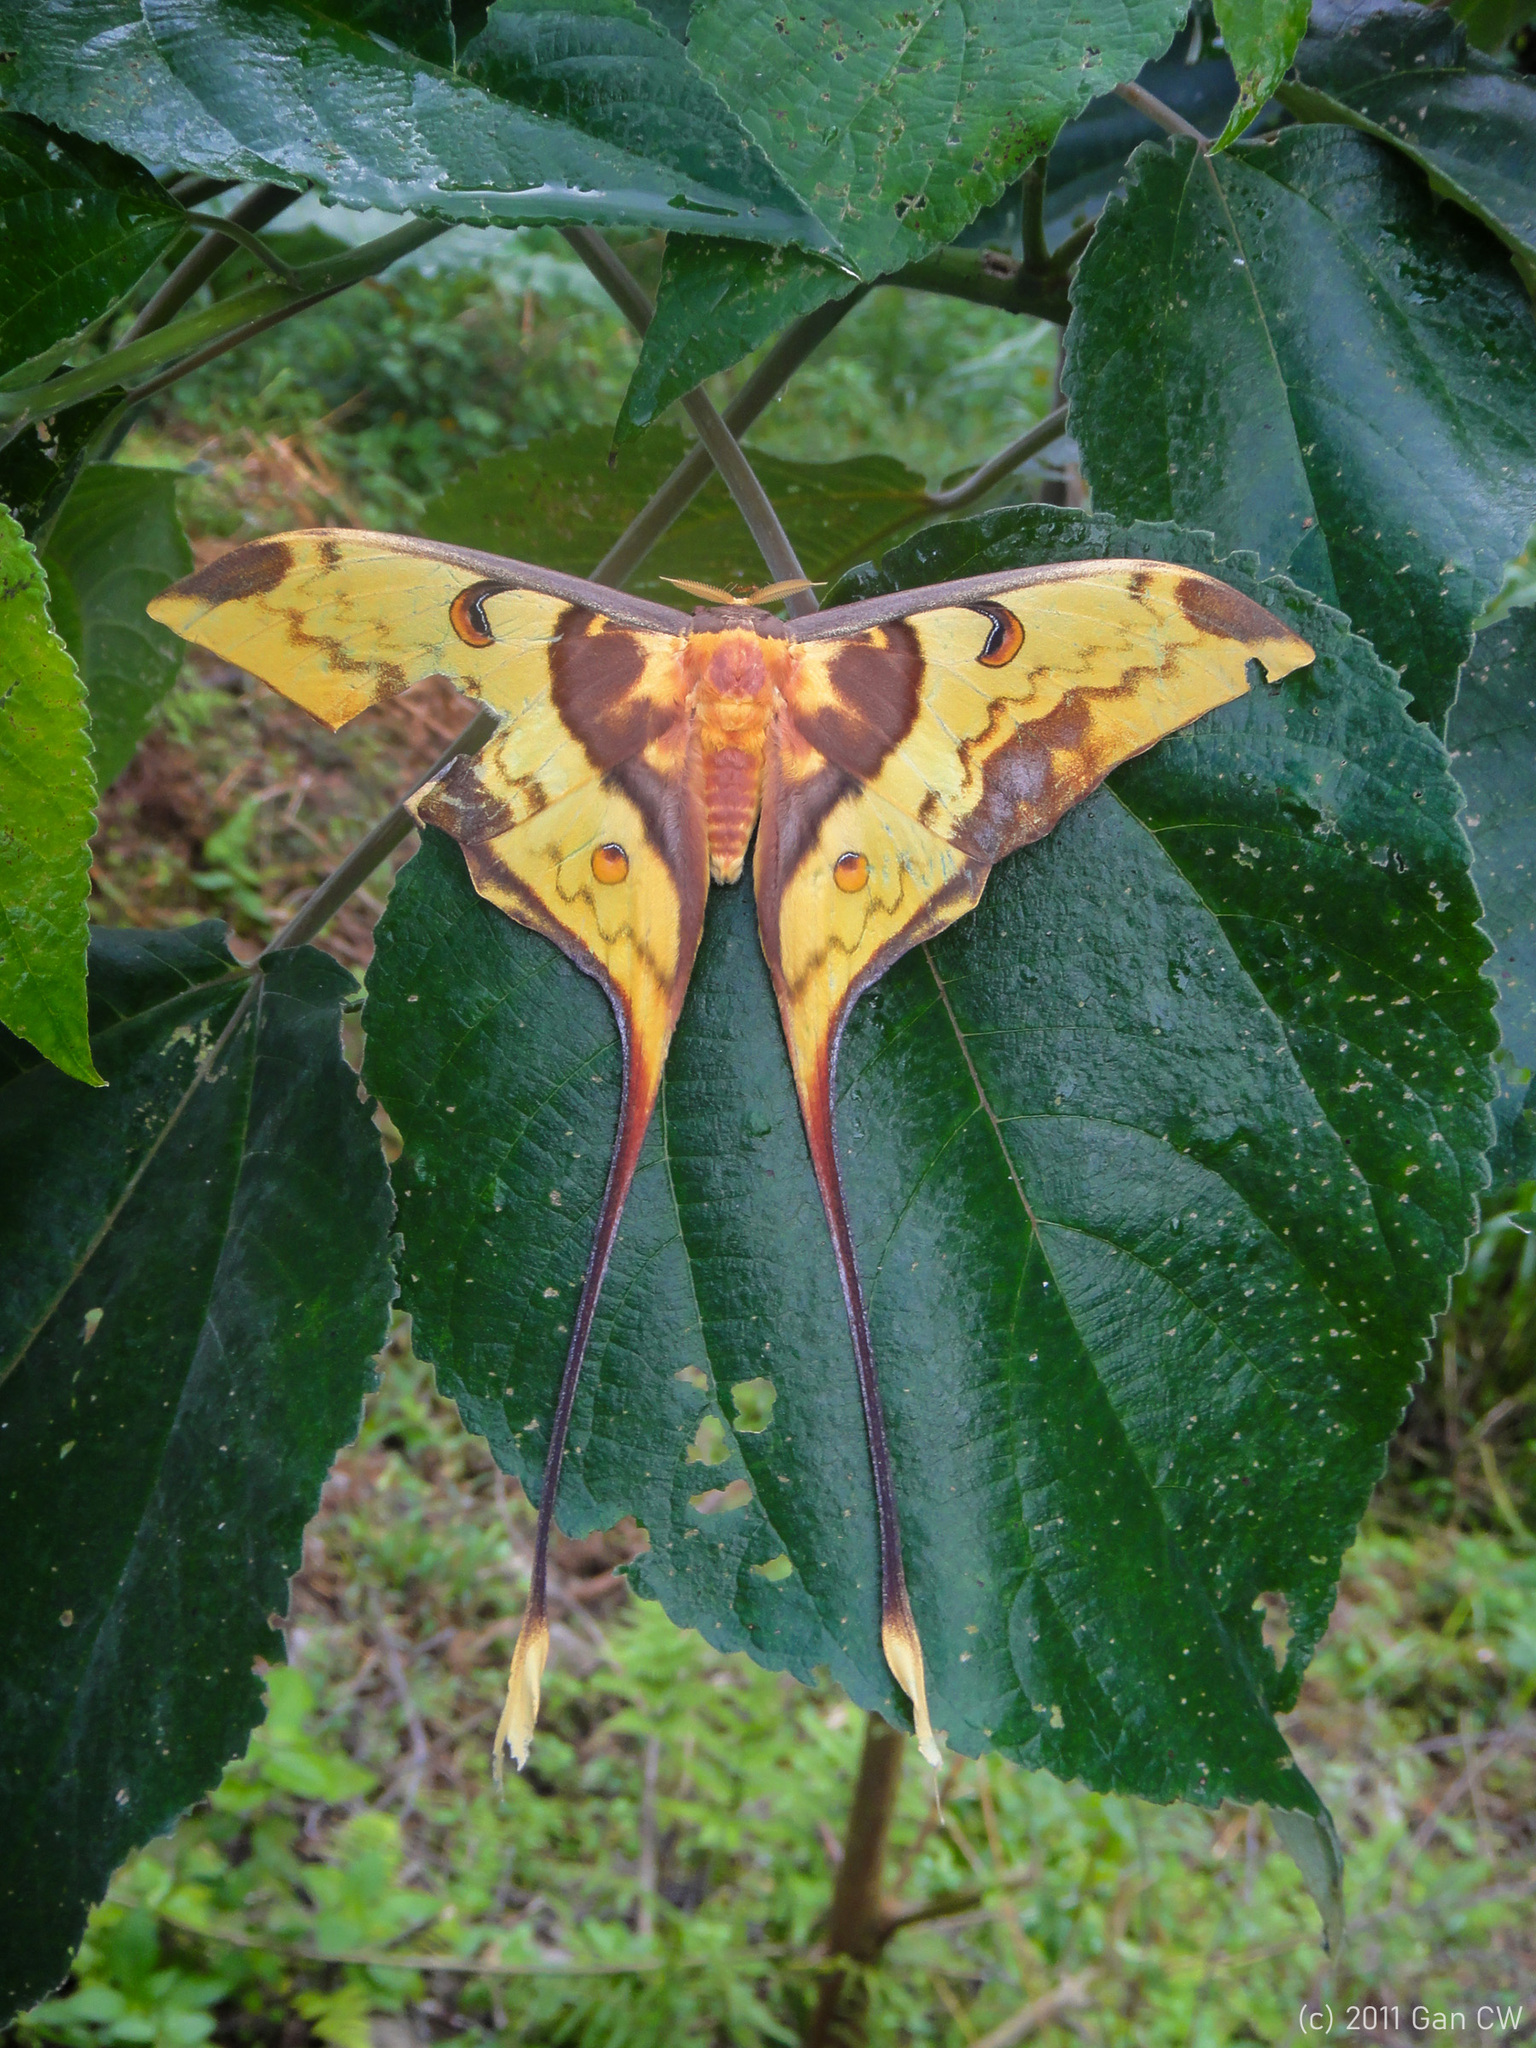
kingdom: Animalia
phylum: Arthropoda
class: Insecta
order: Lepidoptera
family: Saturniidae
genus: Actias
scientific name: Actias philippinica
